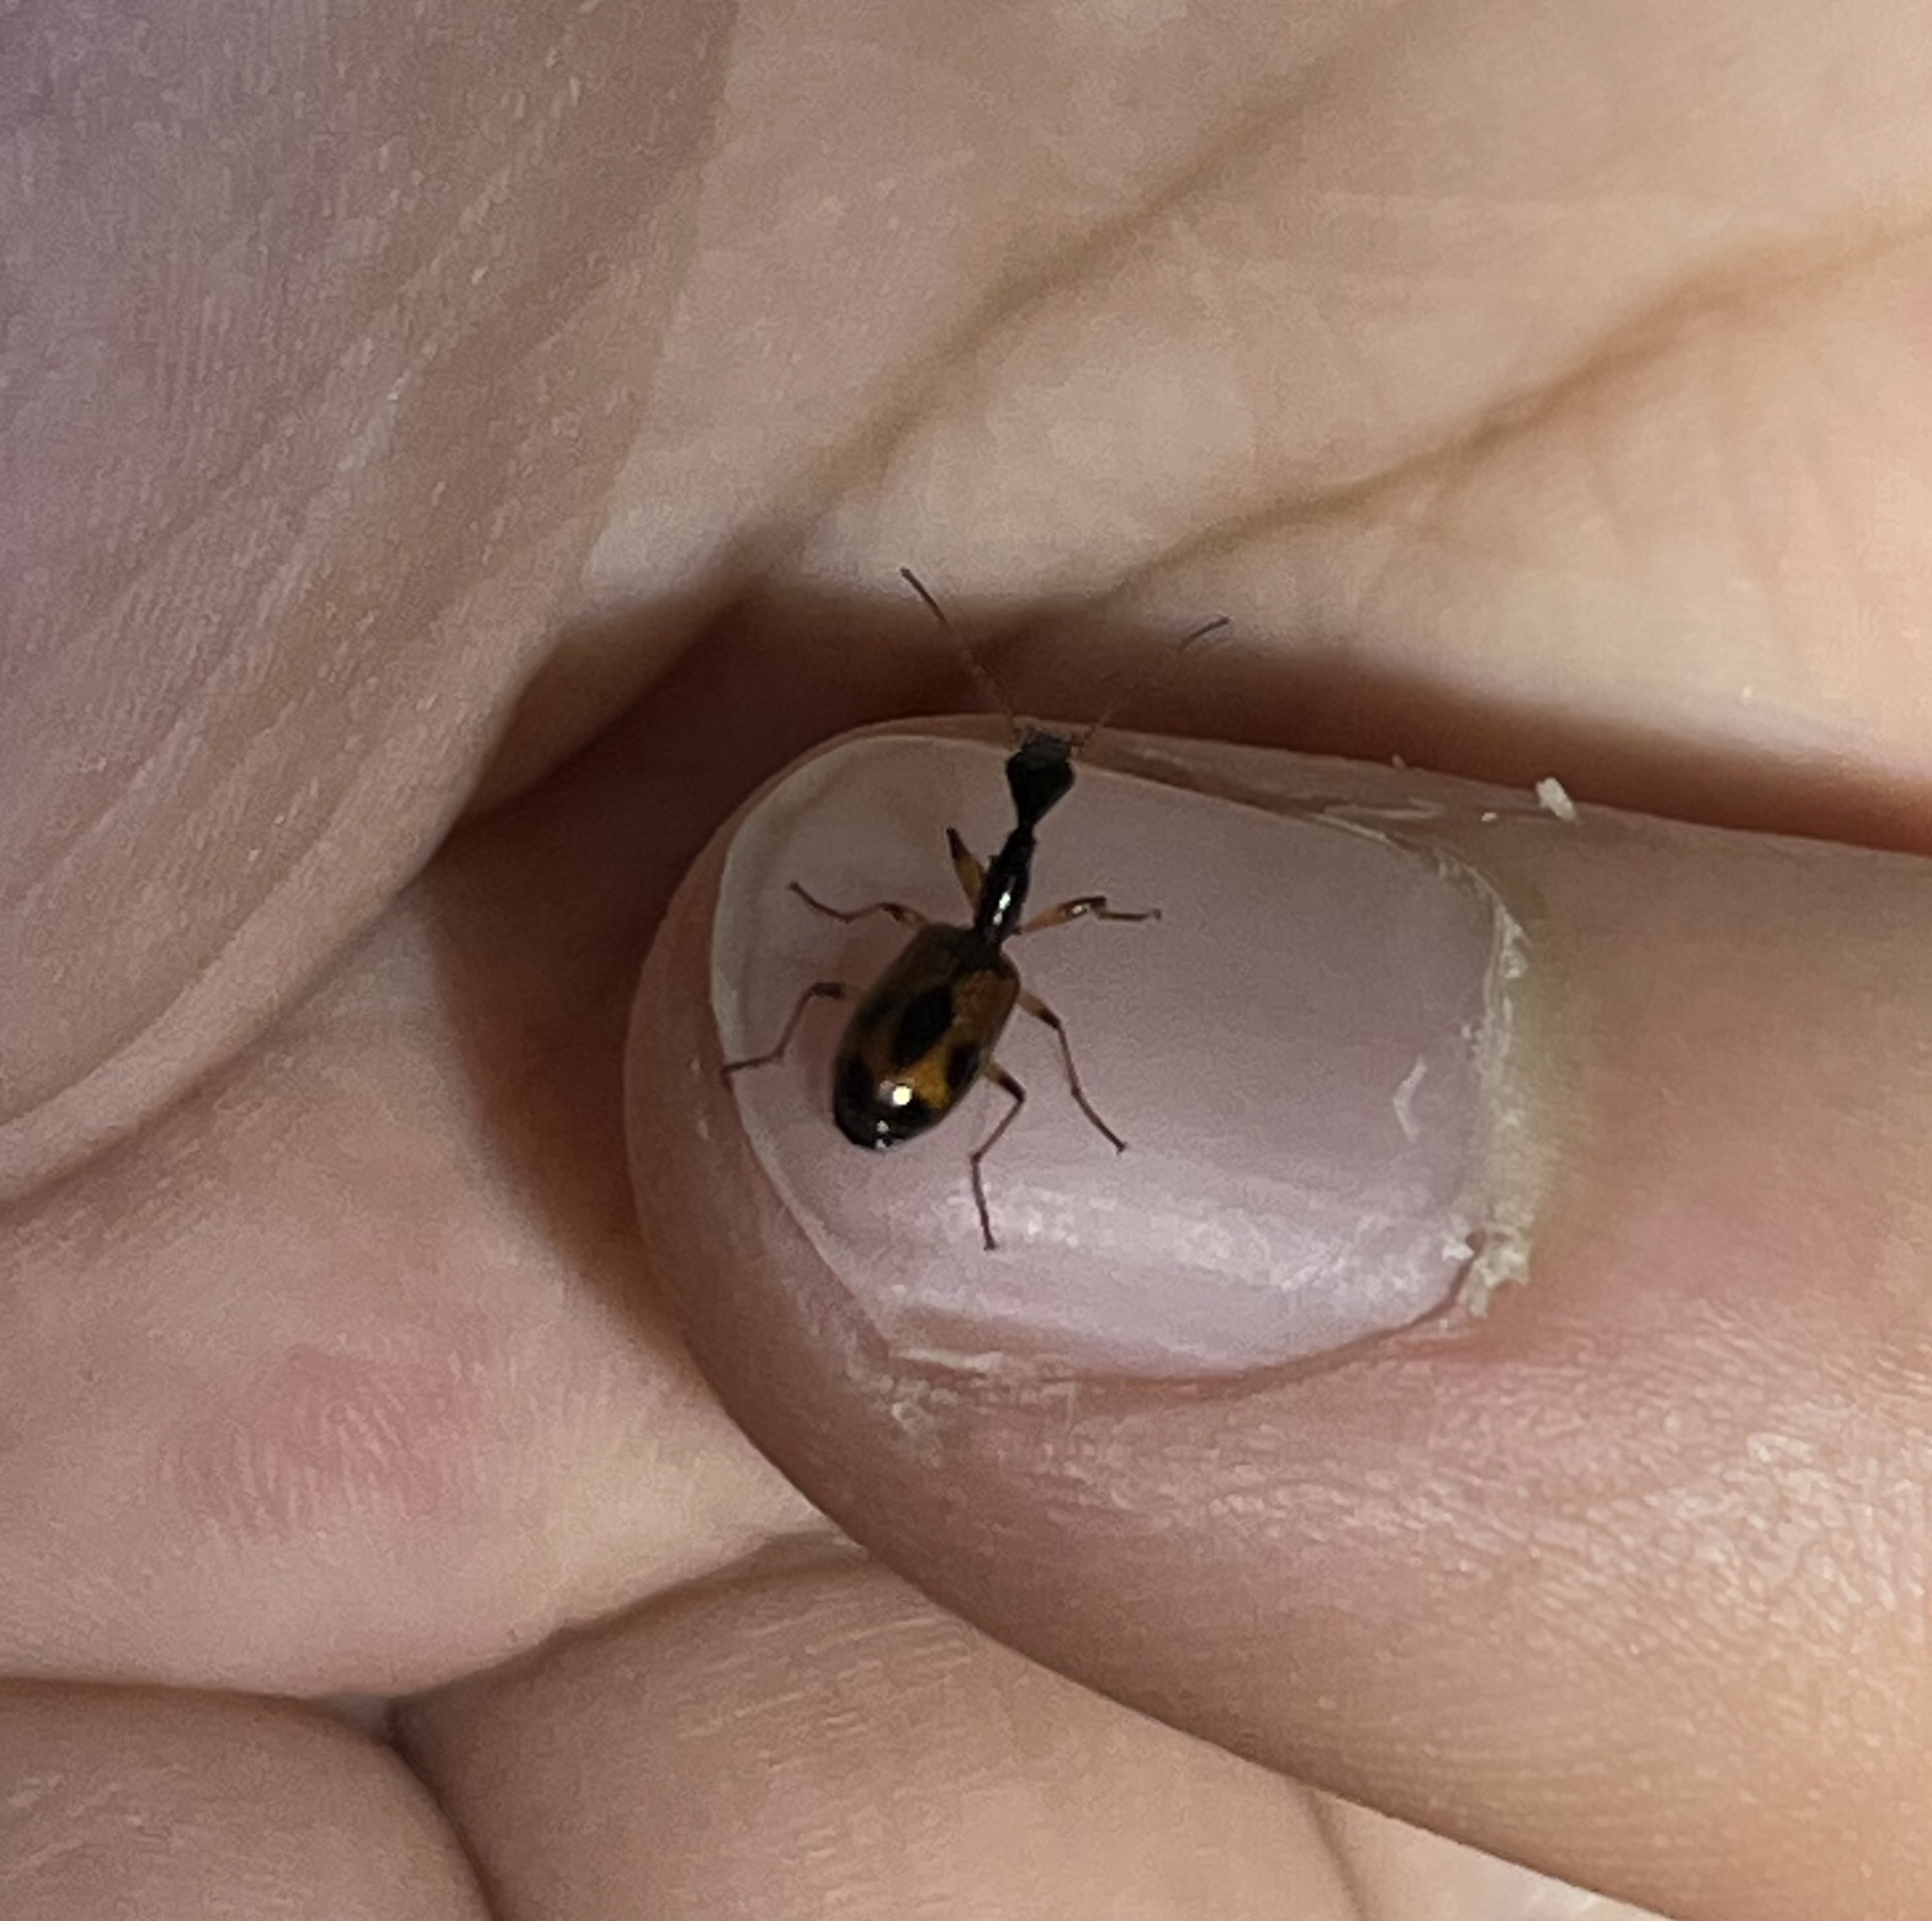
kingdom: Animalia
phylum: Arthropoda
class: Insecta
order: Coleoptera
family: Carabidae
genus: Colliuris
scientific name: Colliuris pensylvanica
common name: Long-necked ground beetle
